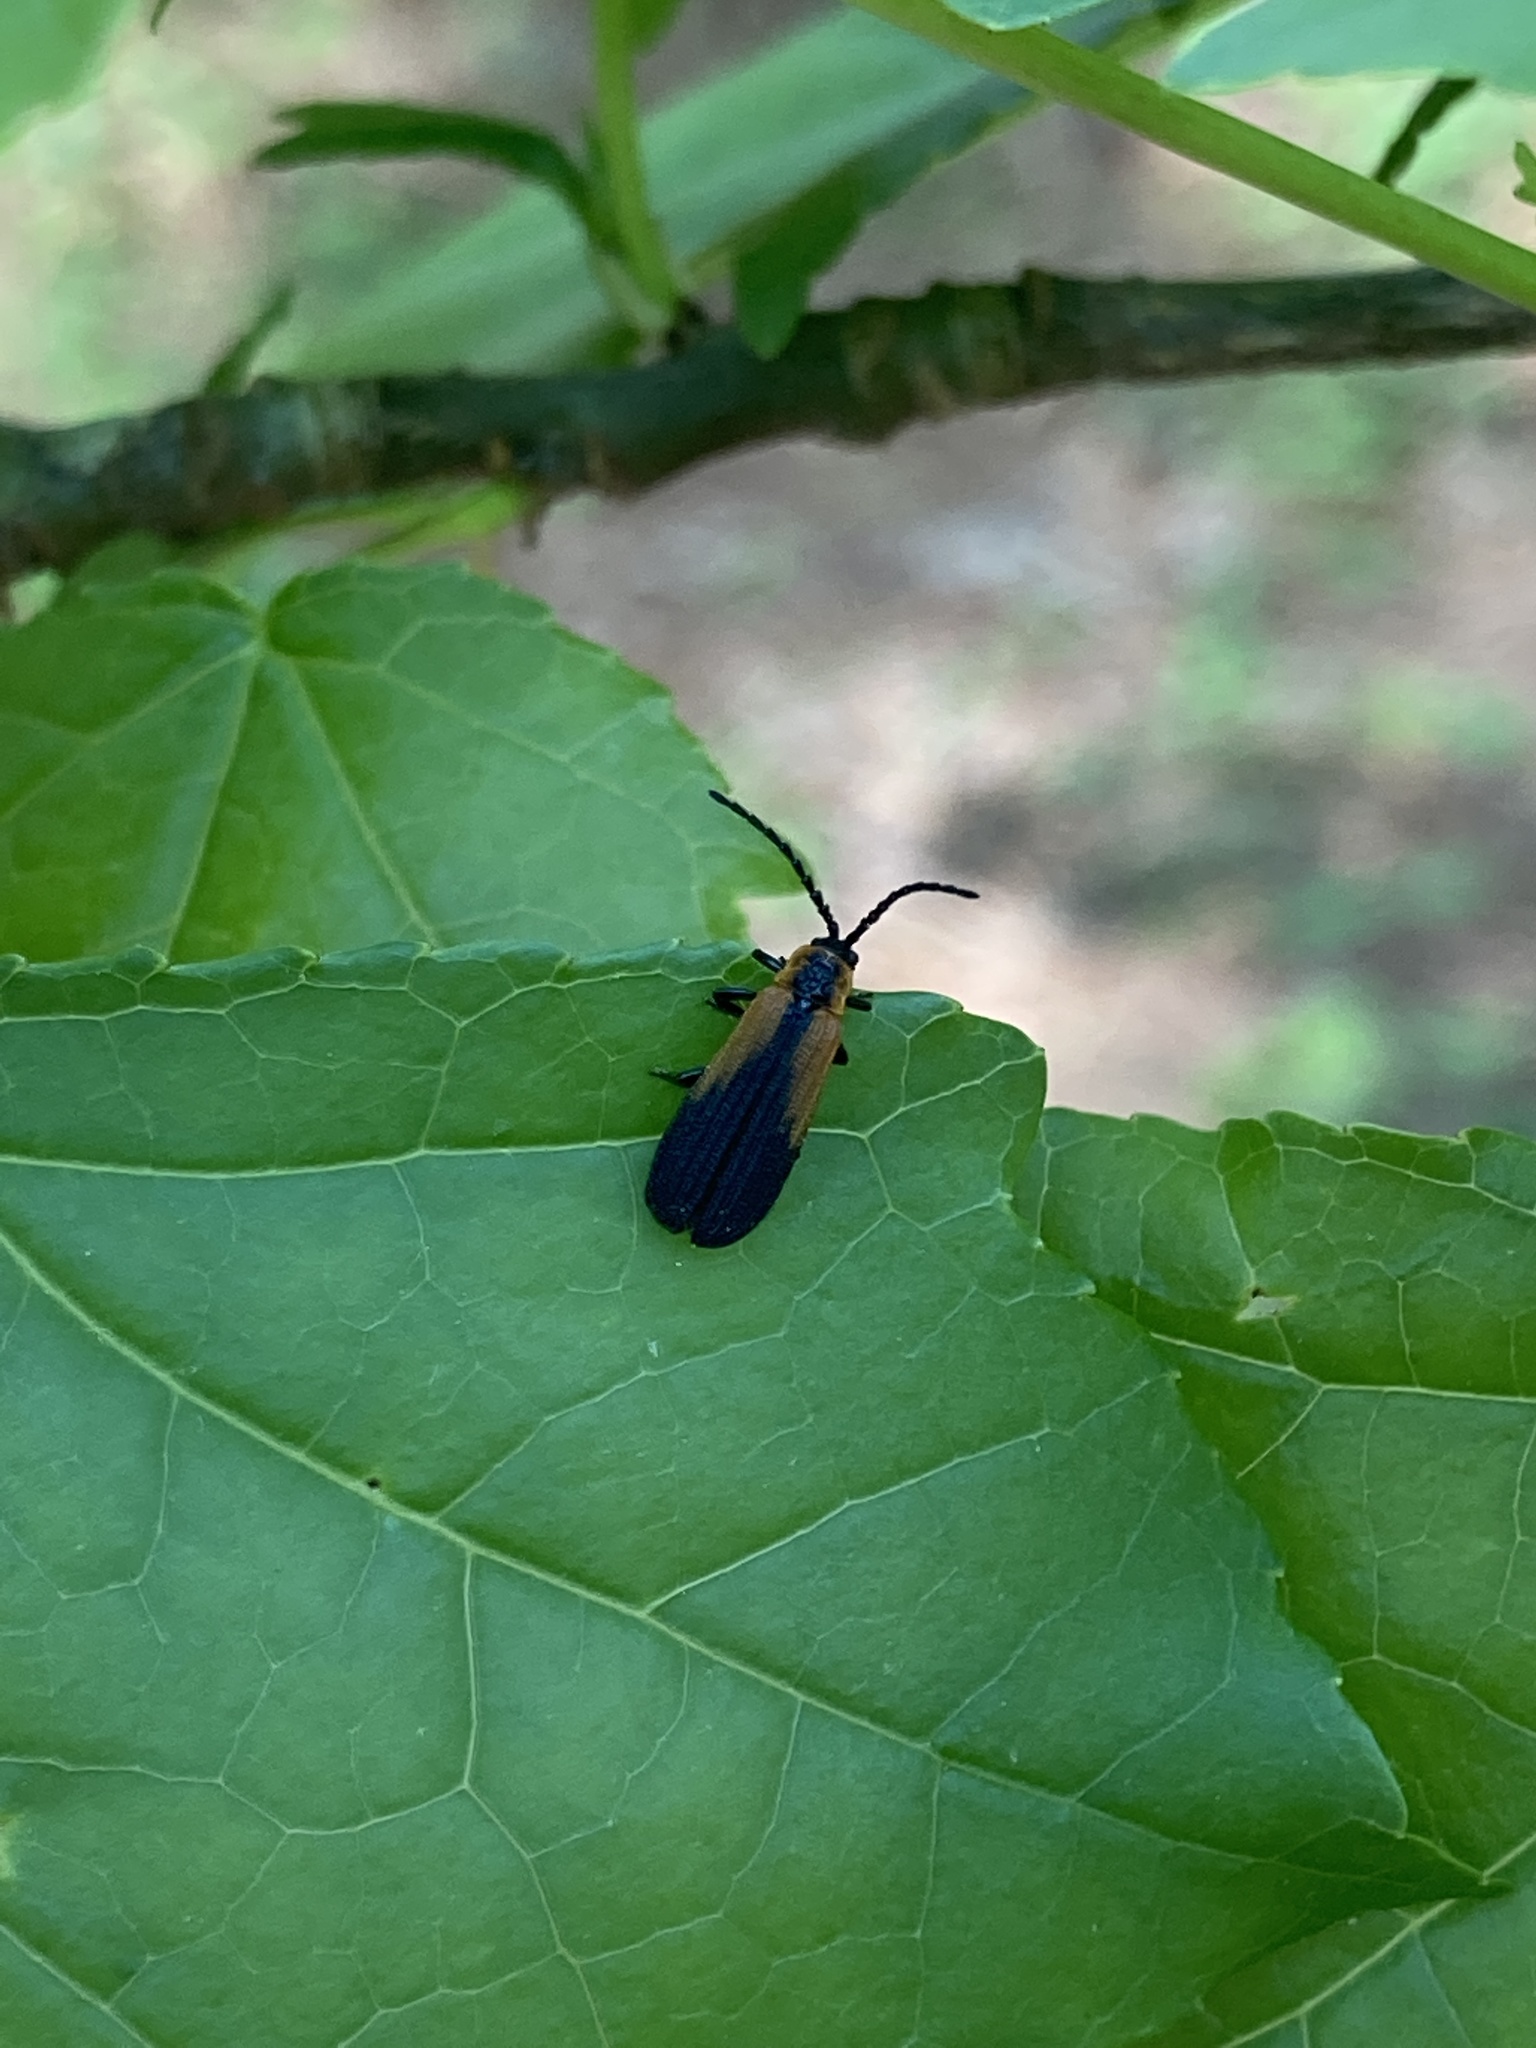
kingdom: Animalia
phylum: Arthropoda
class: Insecta
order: Coleoptera
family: Lycidae
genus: Eros
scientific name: Eros humeralis
